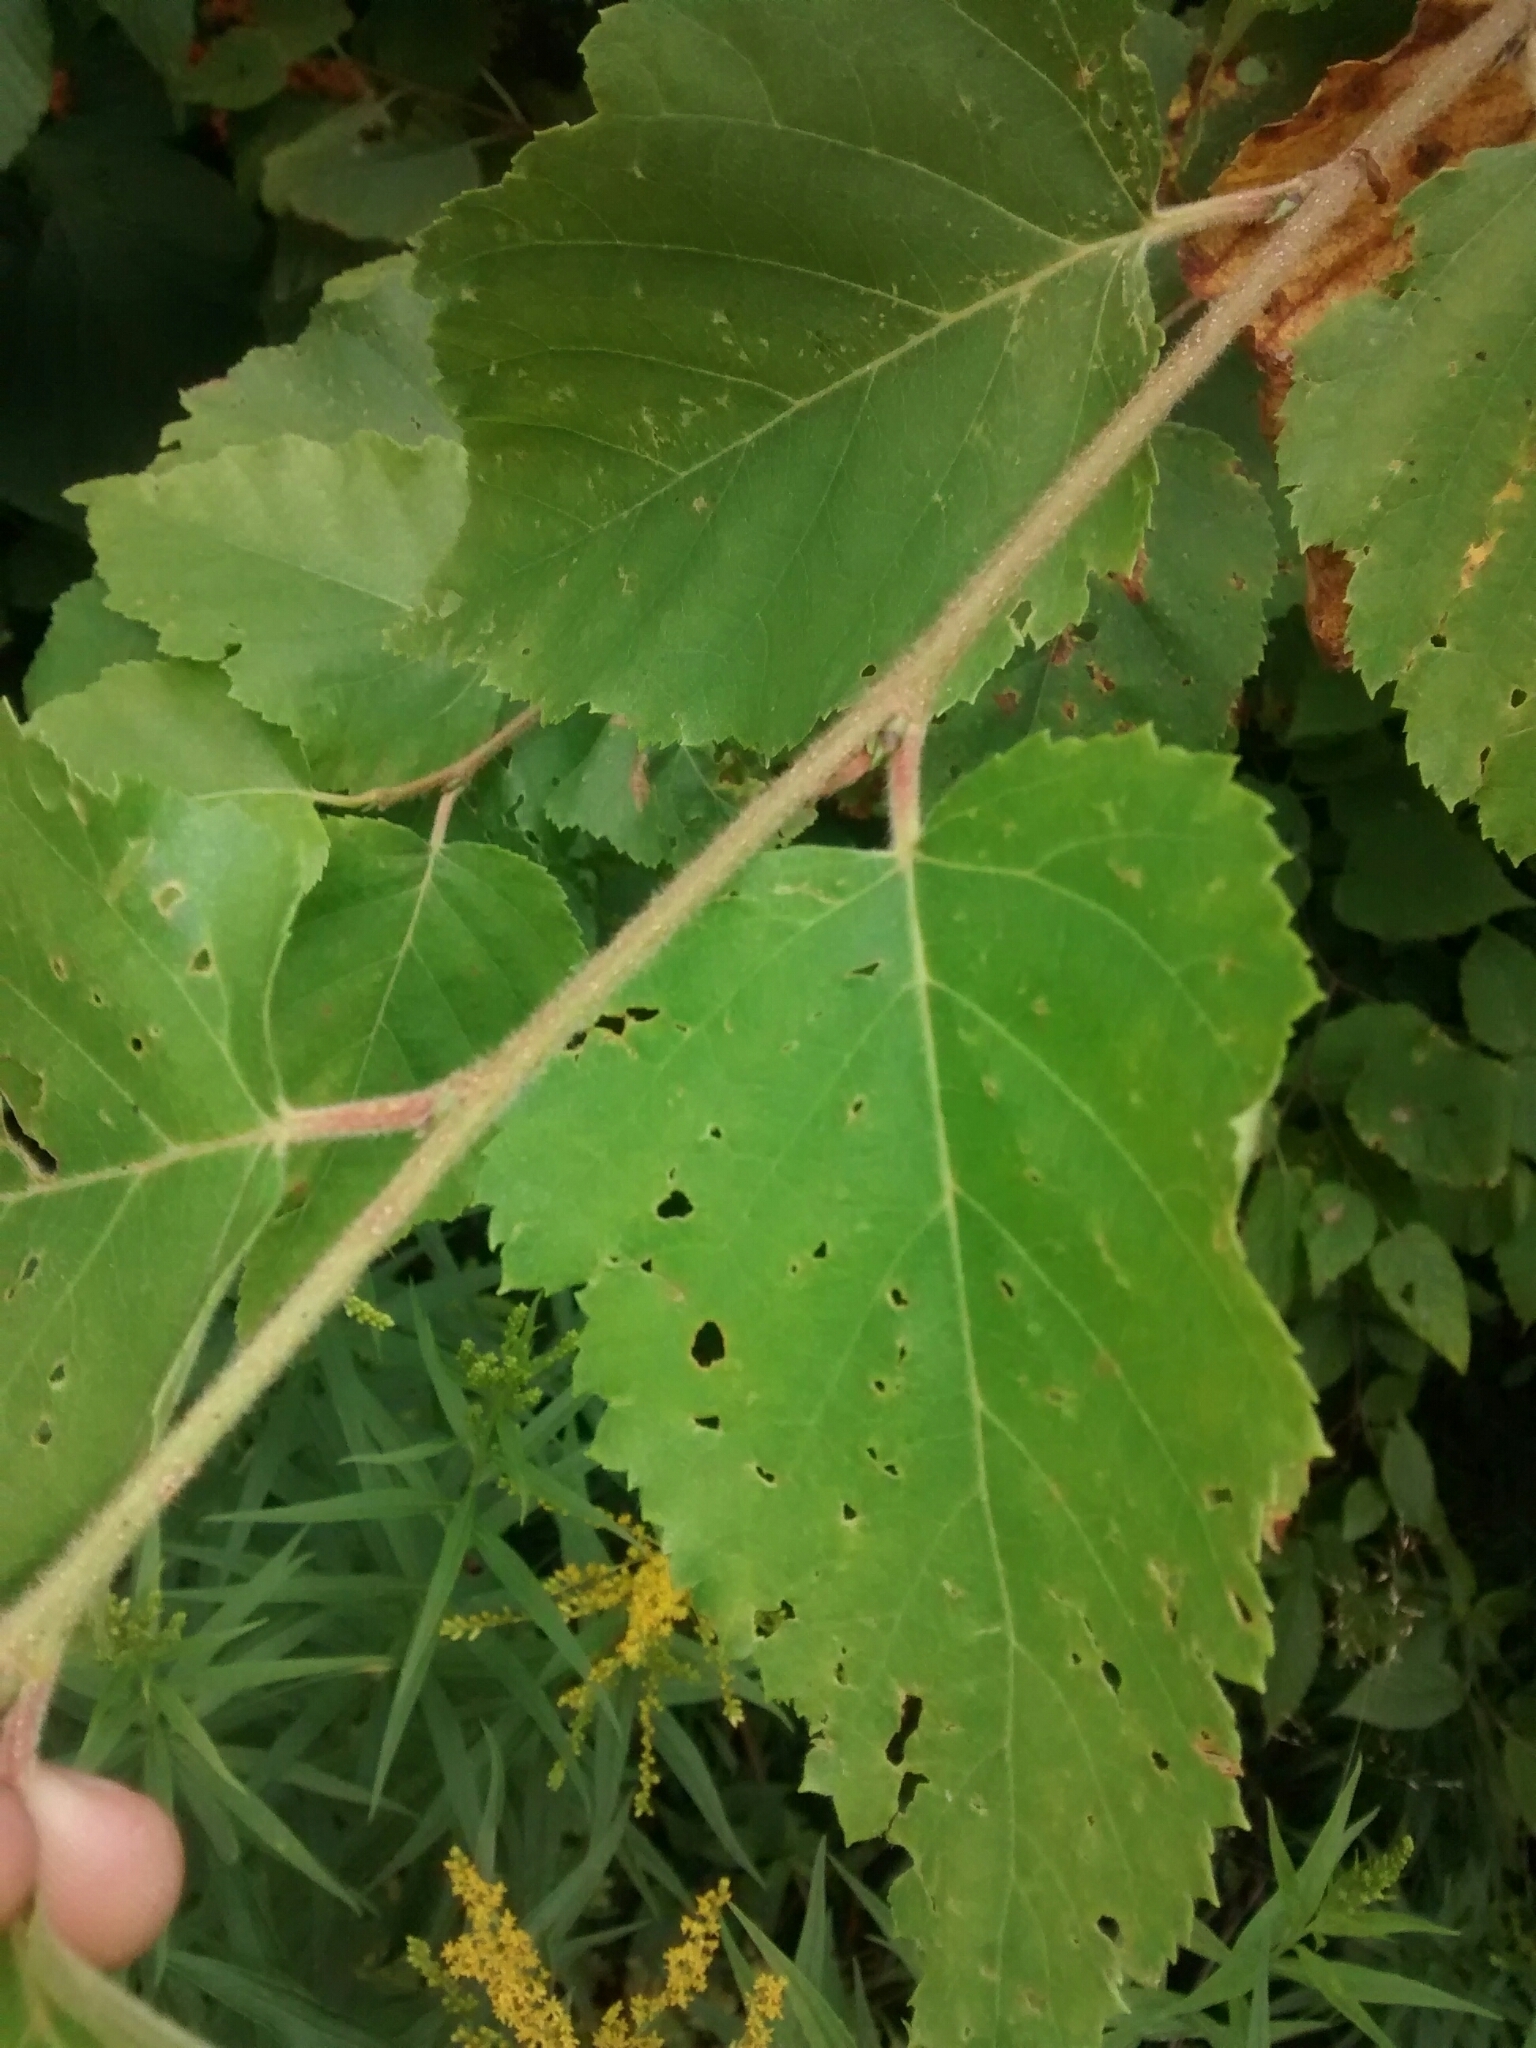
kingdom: Plantae
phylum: Tracheophyta
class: Magnoliopsida
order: Fagales
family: Betulaceae
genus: Betula
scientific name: Betula populifolia
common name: Fire birch
